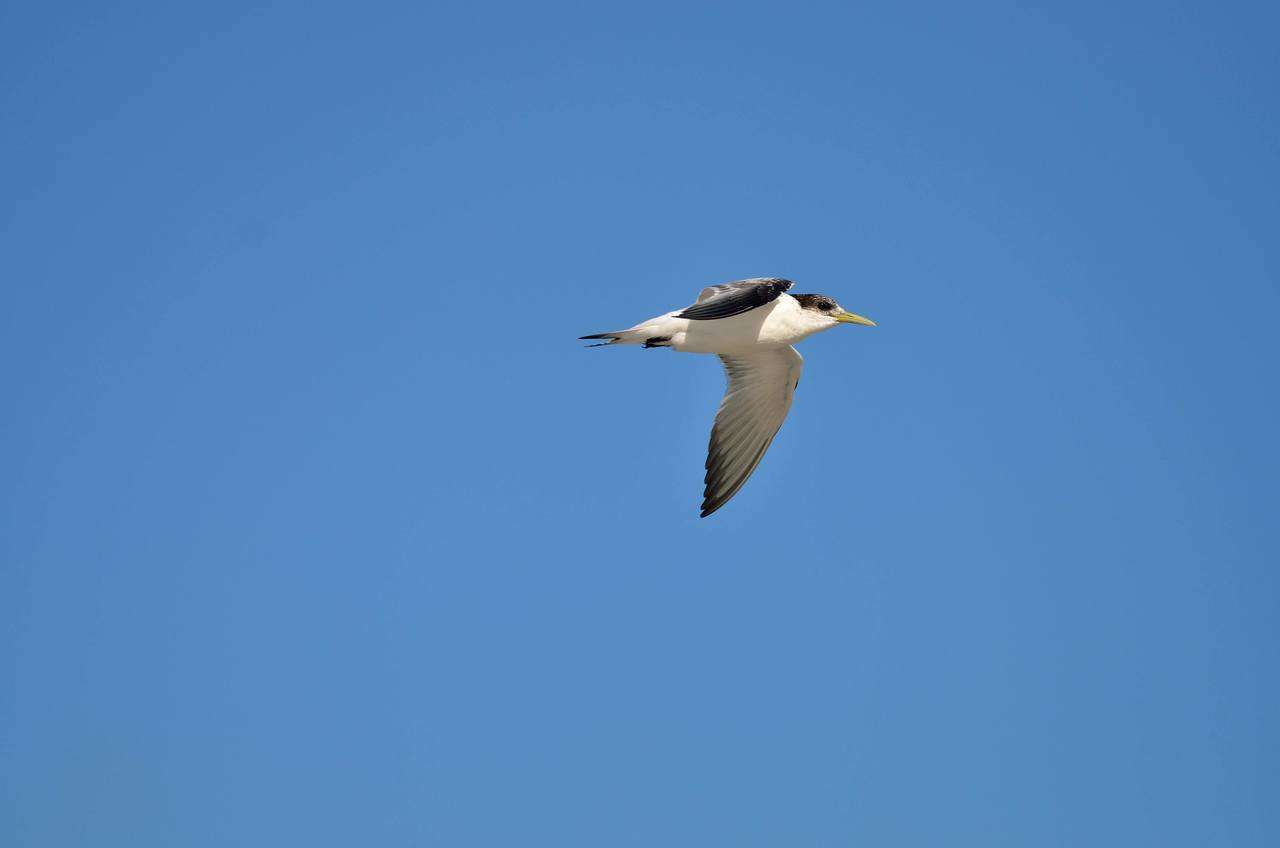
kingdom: Animalia
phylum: Chordata
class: Aves
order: Charadriiformes
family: Laridae
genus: Thalasseus
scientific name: Thalasseus bergii
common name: Greater crested tern
